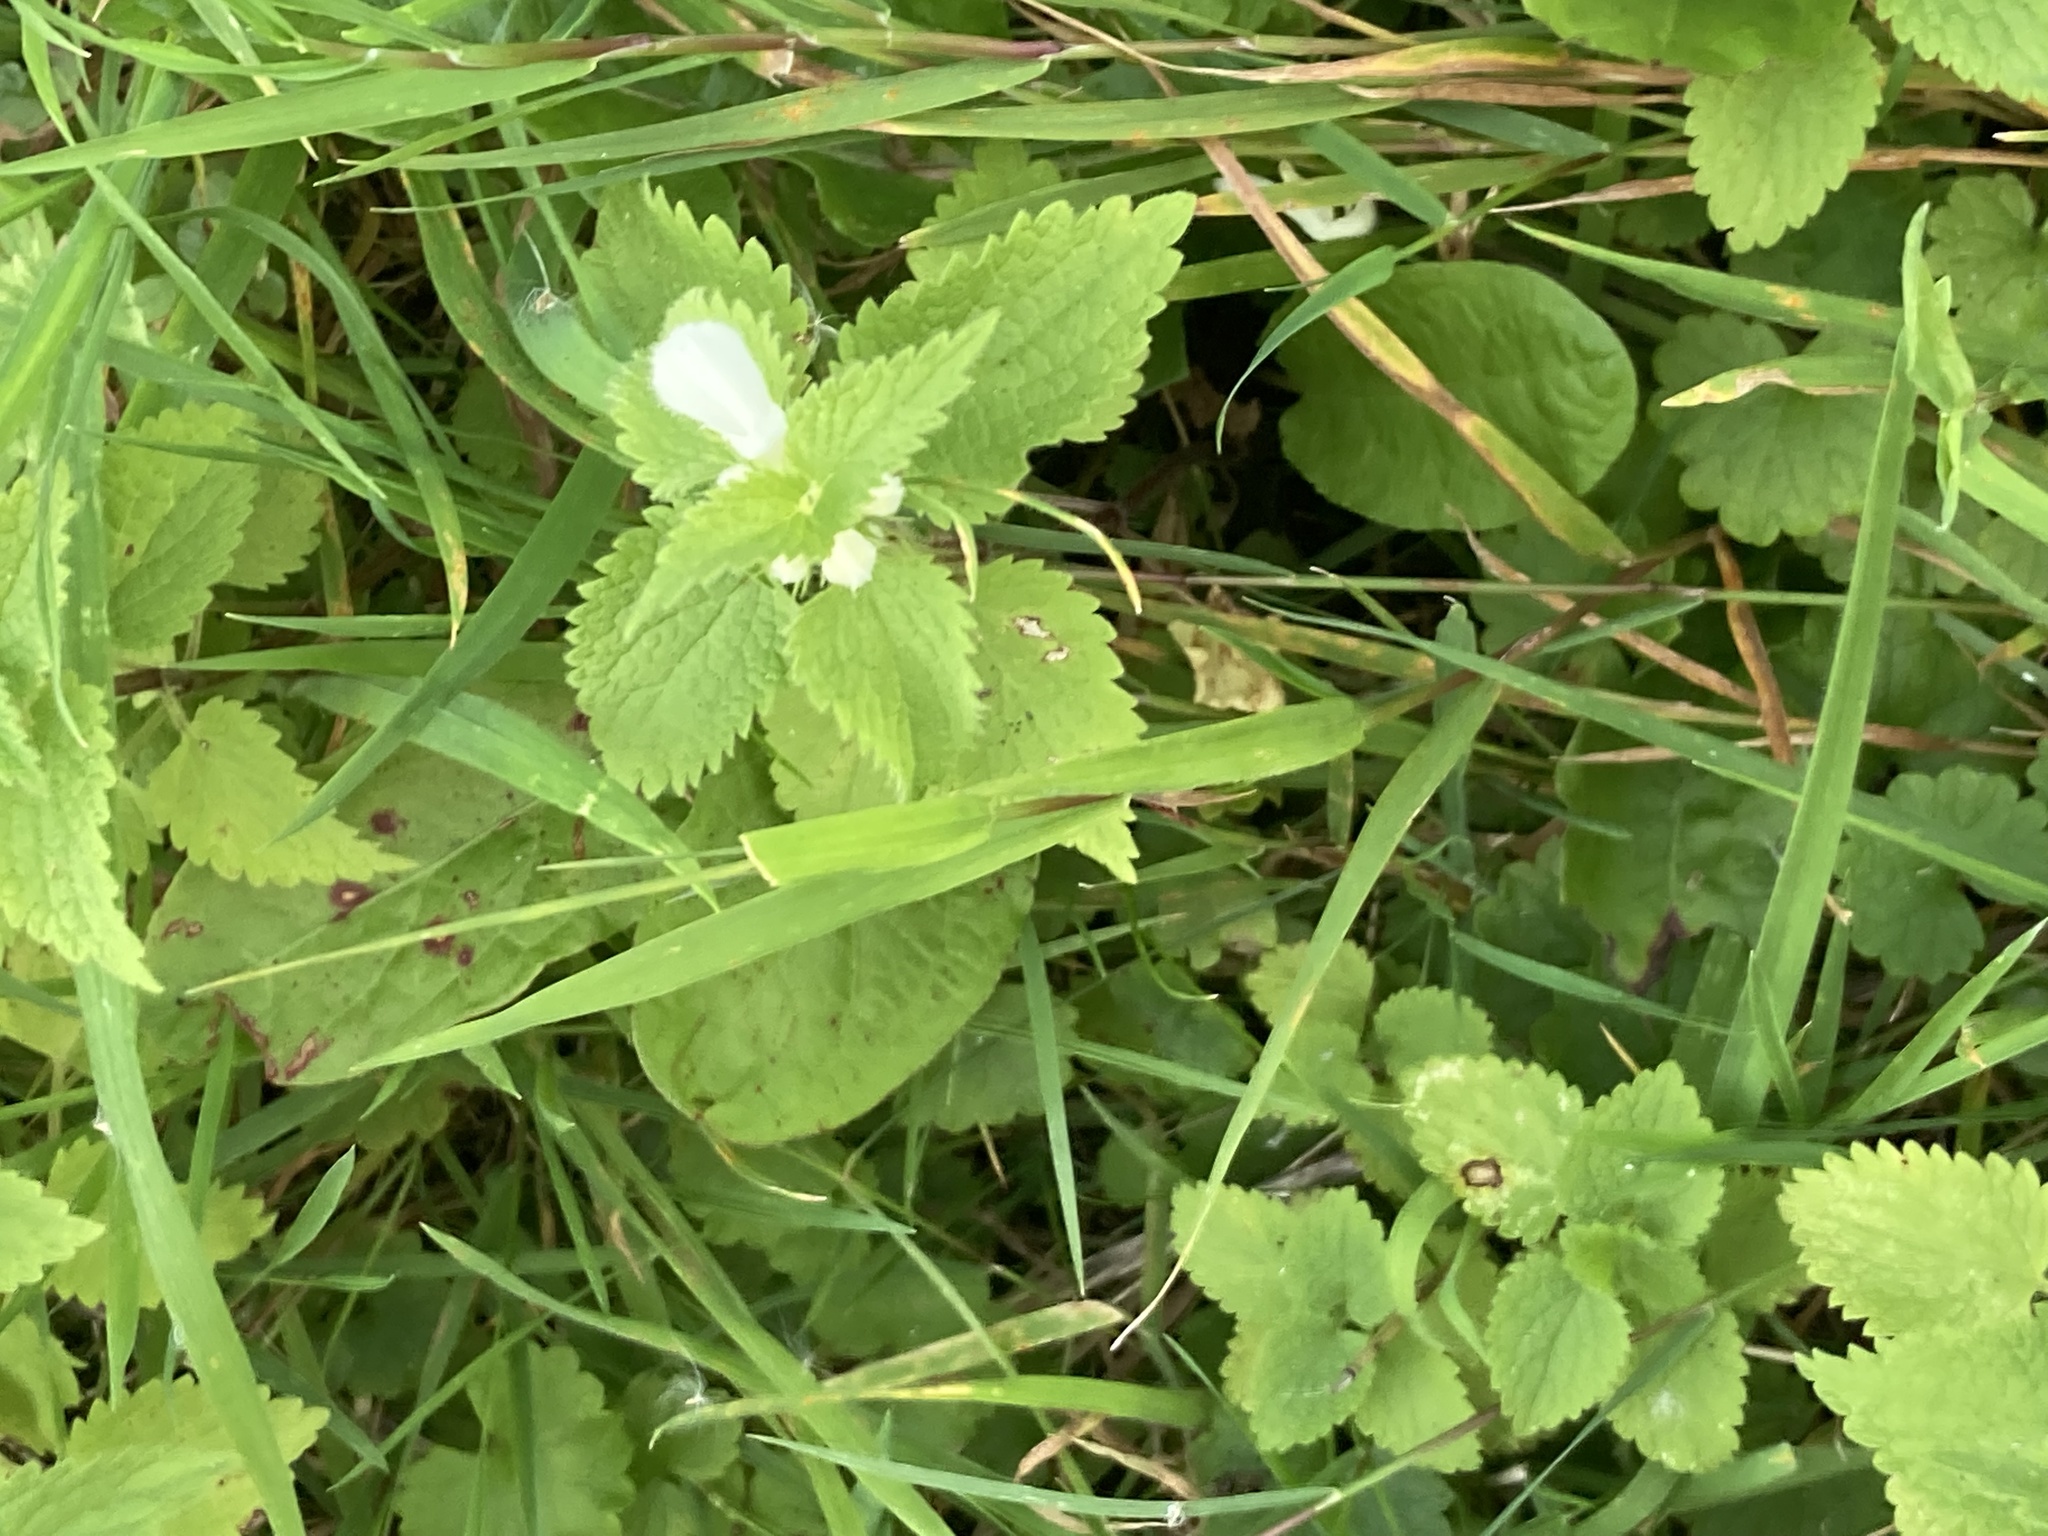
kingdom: Plantae
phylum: Tracheophyta
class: Magnoliopsida
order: Lamiales
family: Lamiaceae
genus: Lamium
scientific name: Lamium album
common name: White dead-nettle
